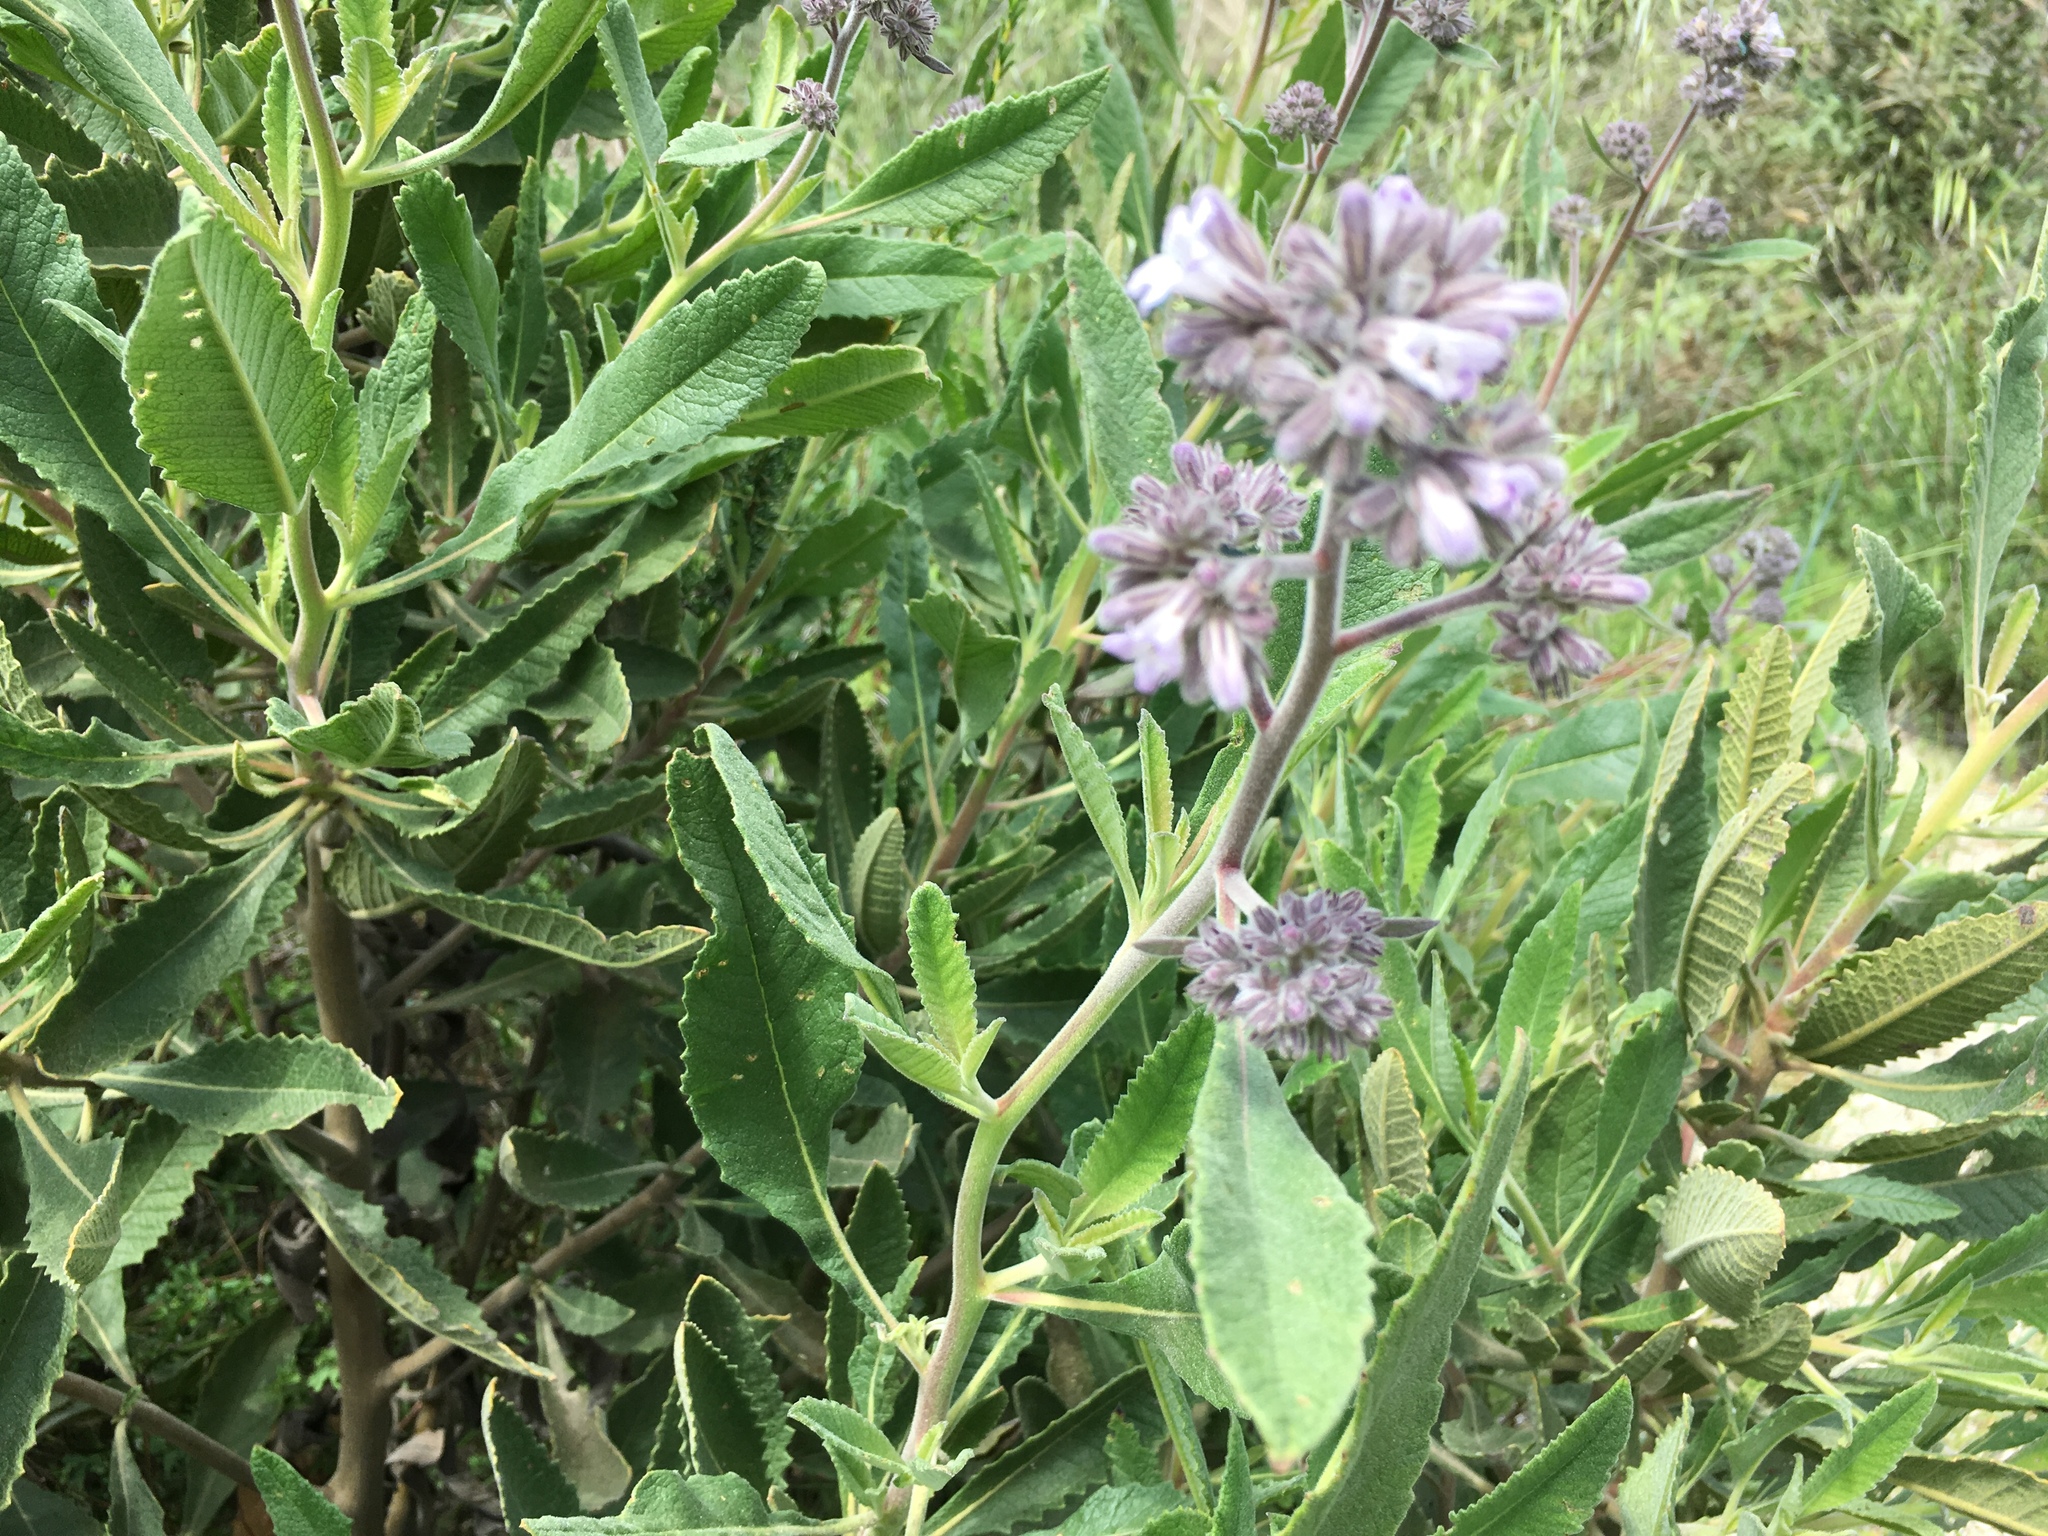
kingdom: Plantae
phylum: Tracheophyta
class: Magnoliopsida
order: Boraginales
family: Namaceae
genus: Eriodictyon
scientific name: Eriodictyon crassifolium
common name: Thick-leaf yerba-santa
